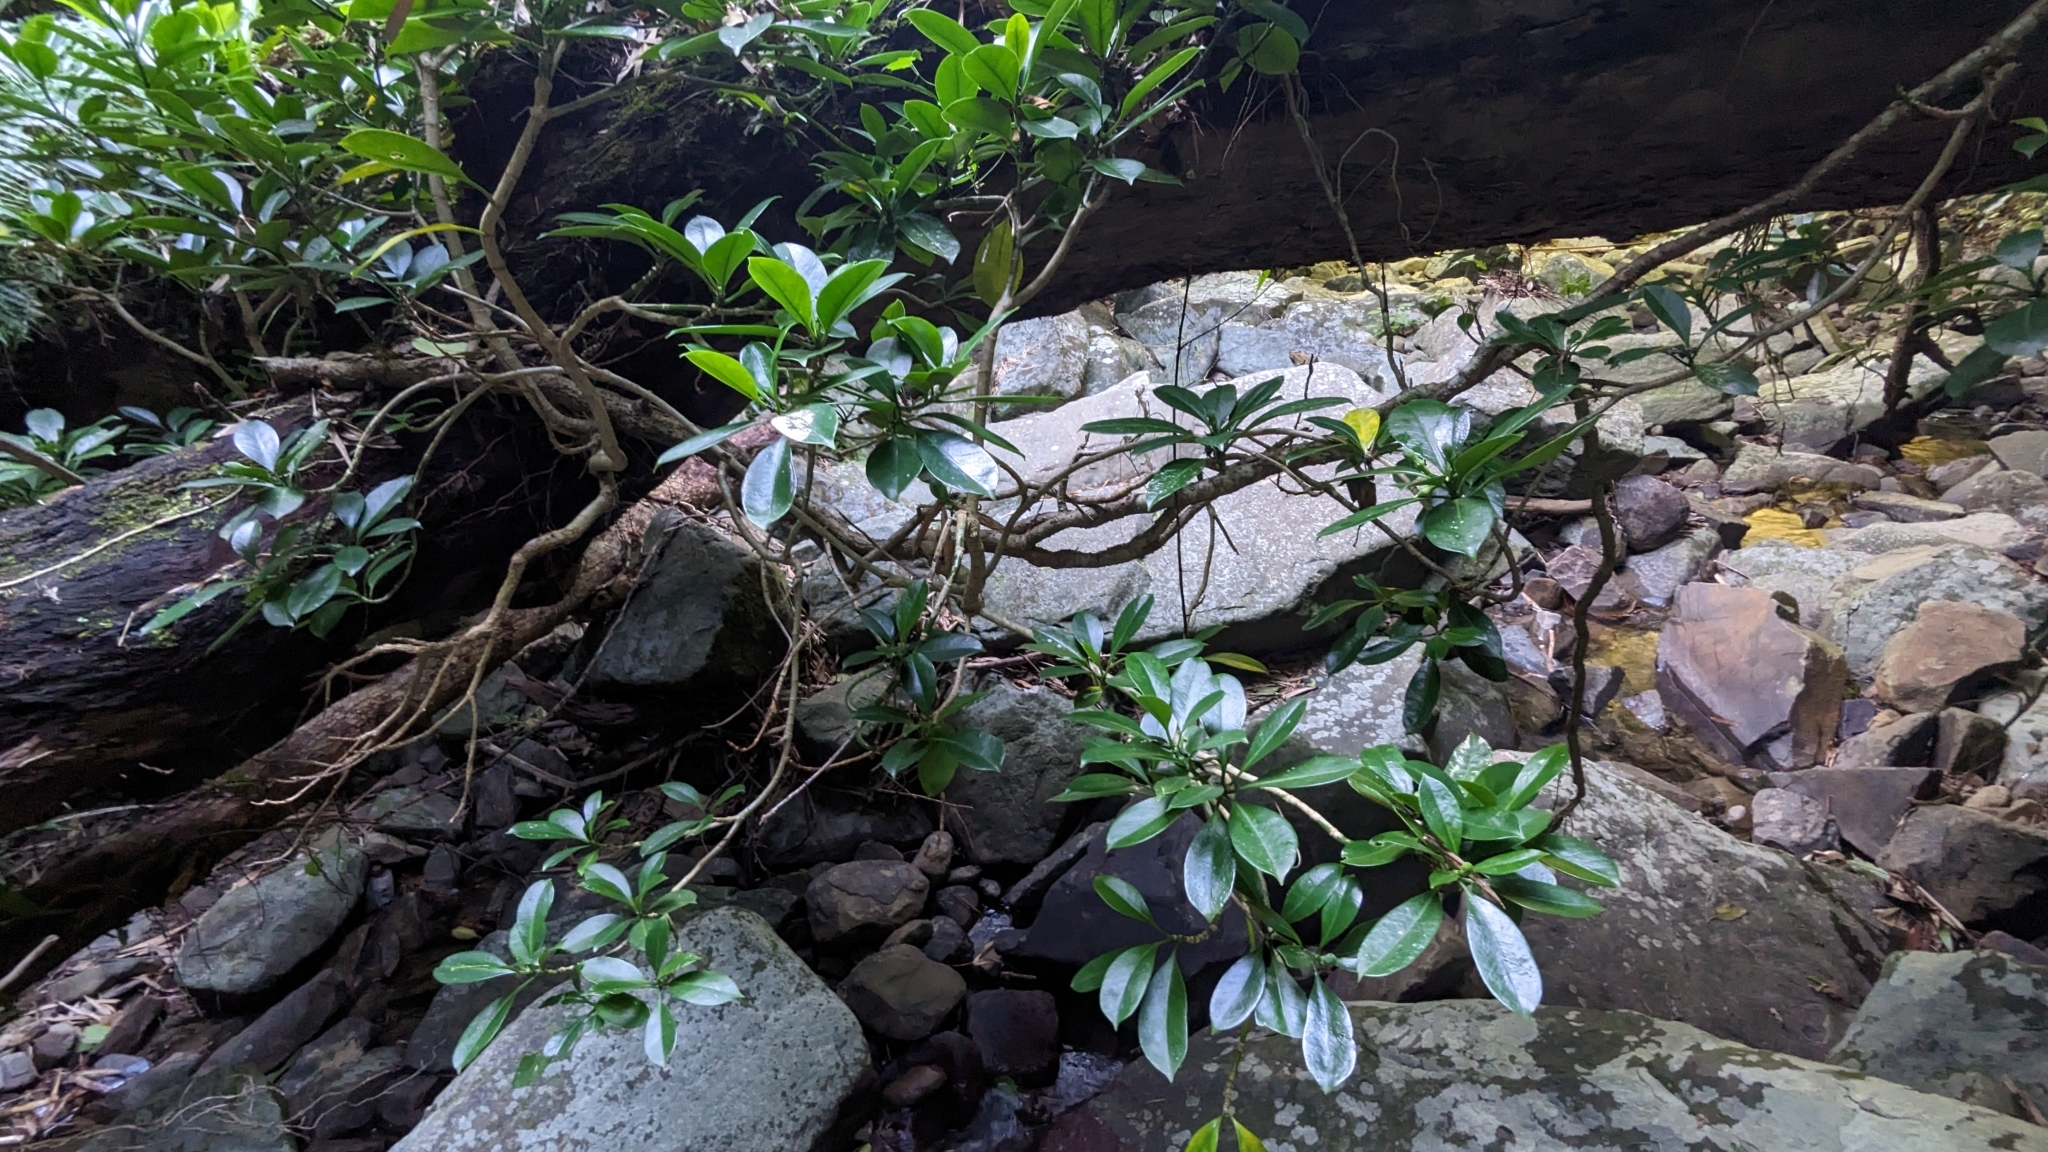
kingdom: Plantae
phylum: Tracheophyta
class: Magnoliopsida
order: Gentianales
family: Gentianaceae
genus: Fagraea
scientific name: Fagraea ceilanica
